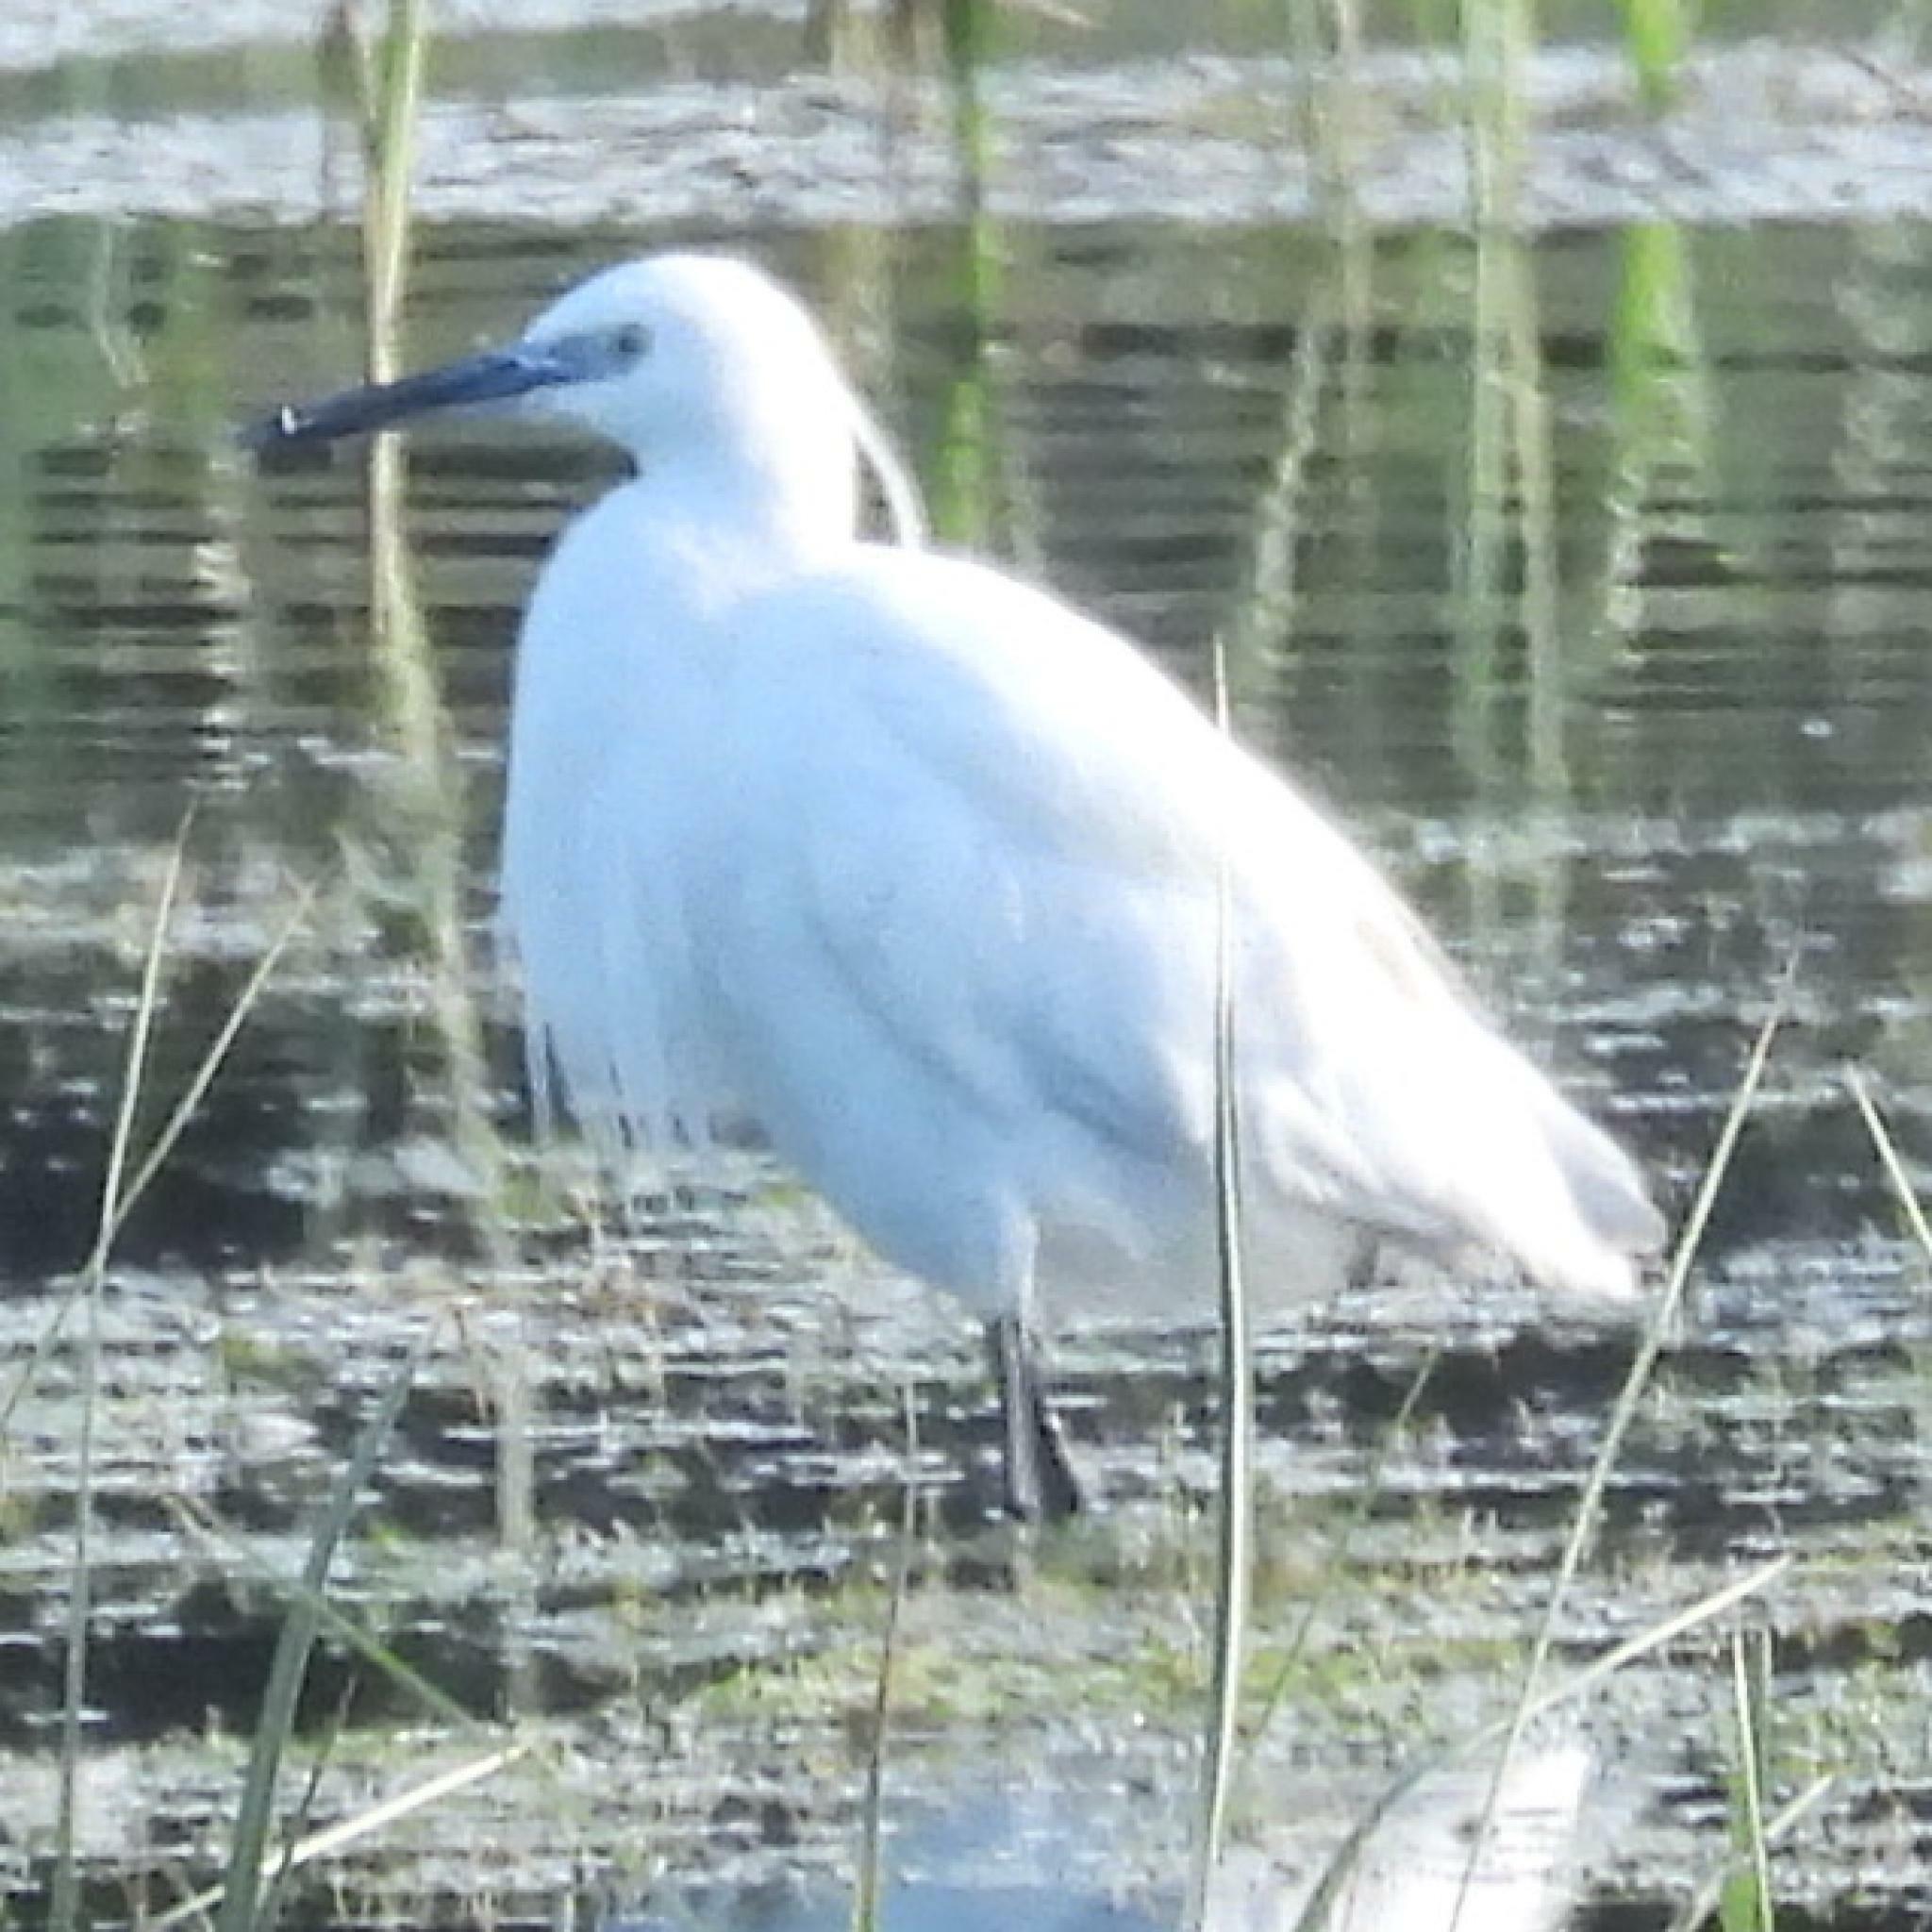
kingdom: Animalia
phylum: Chordata
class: Aves
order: Pelecaniformes
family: Ardeidae
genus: Egretta
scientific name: Egretta garzetta
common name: Little egret
